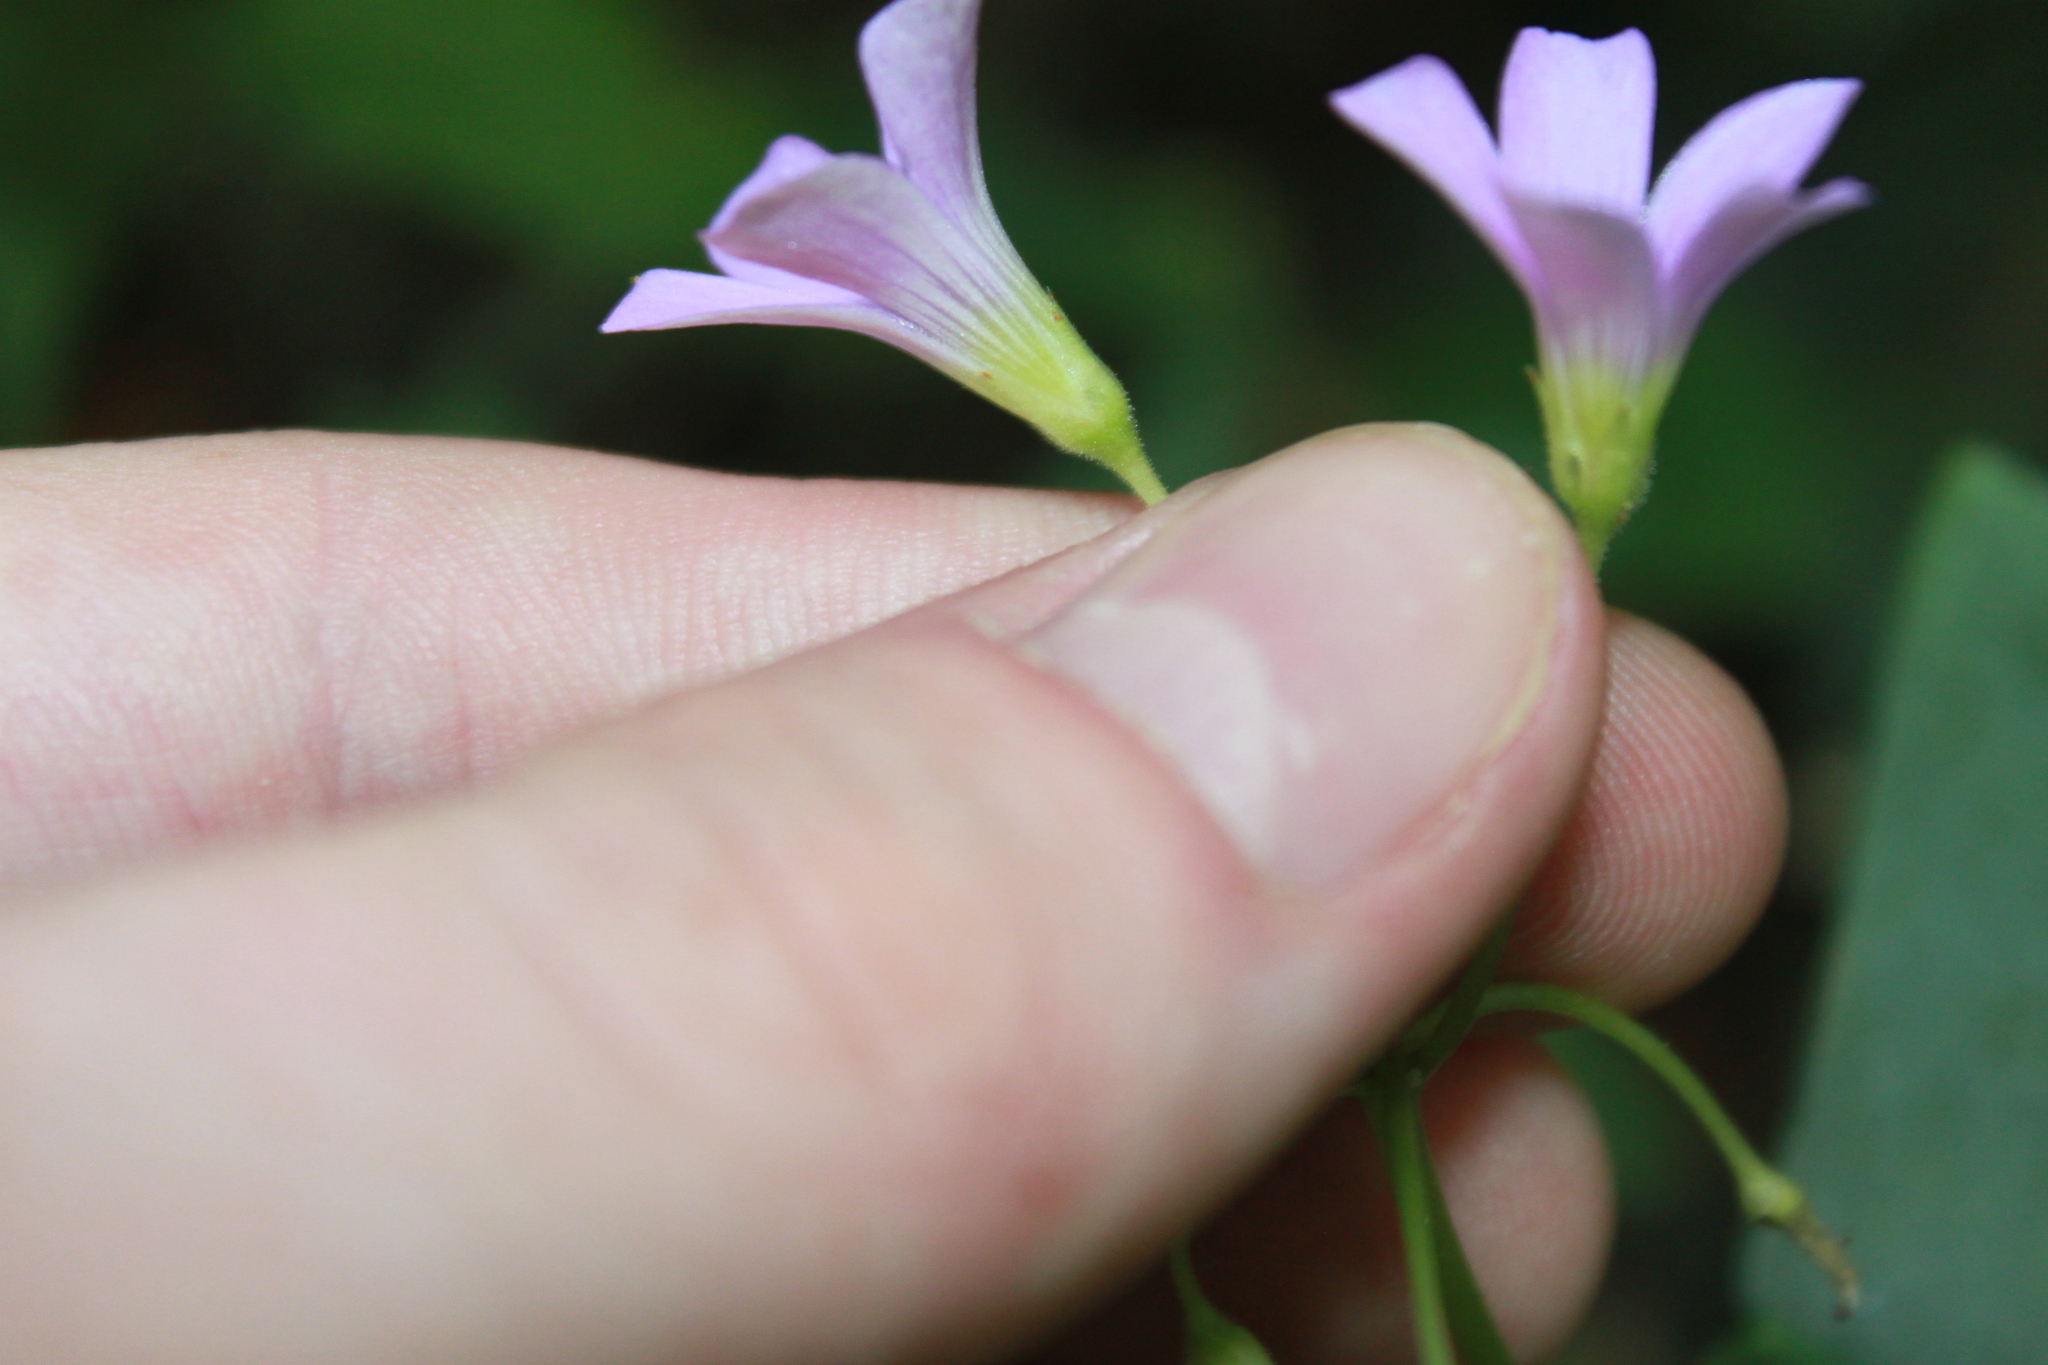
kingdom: Plantae
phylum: Tracheophyta
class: Magnoliopsida
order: Oxalidales
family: Oxalidaceae
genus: Oxalis
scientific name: Oxalis triangularis
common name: Wood sorrel
